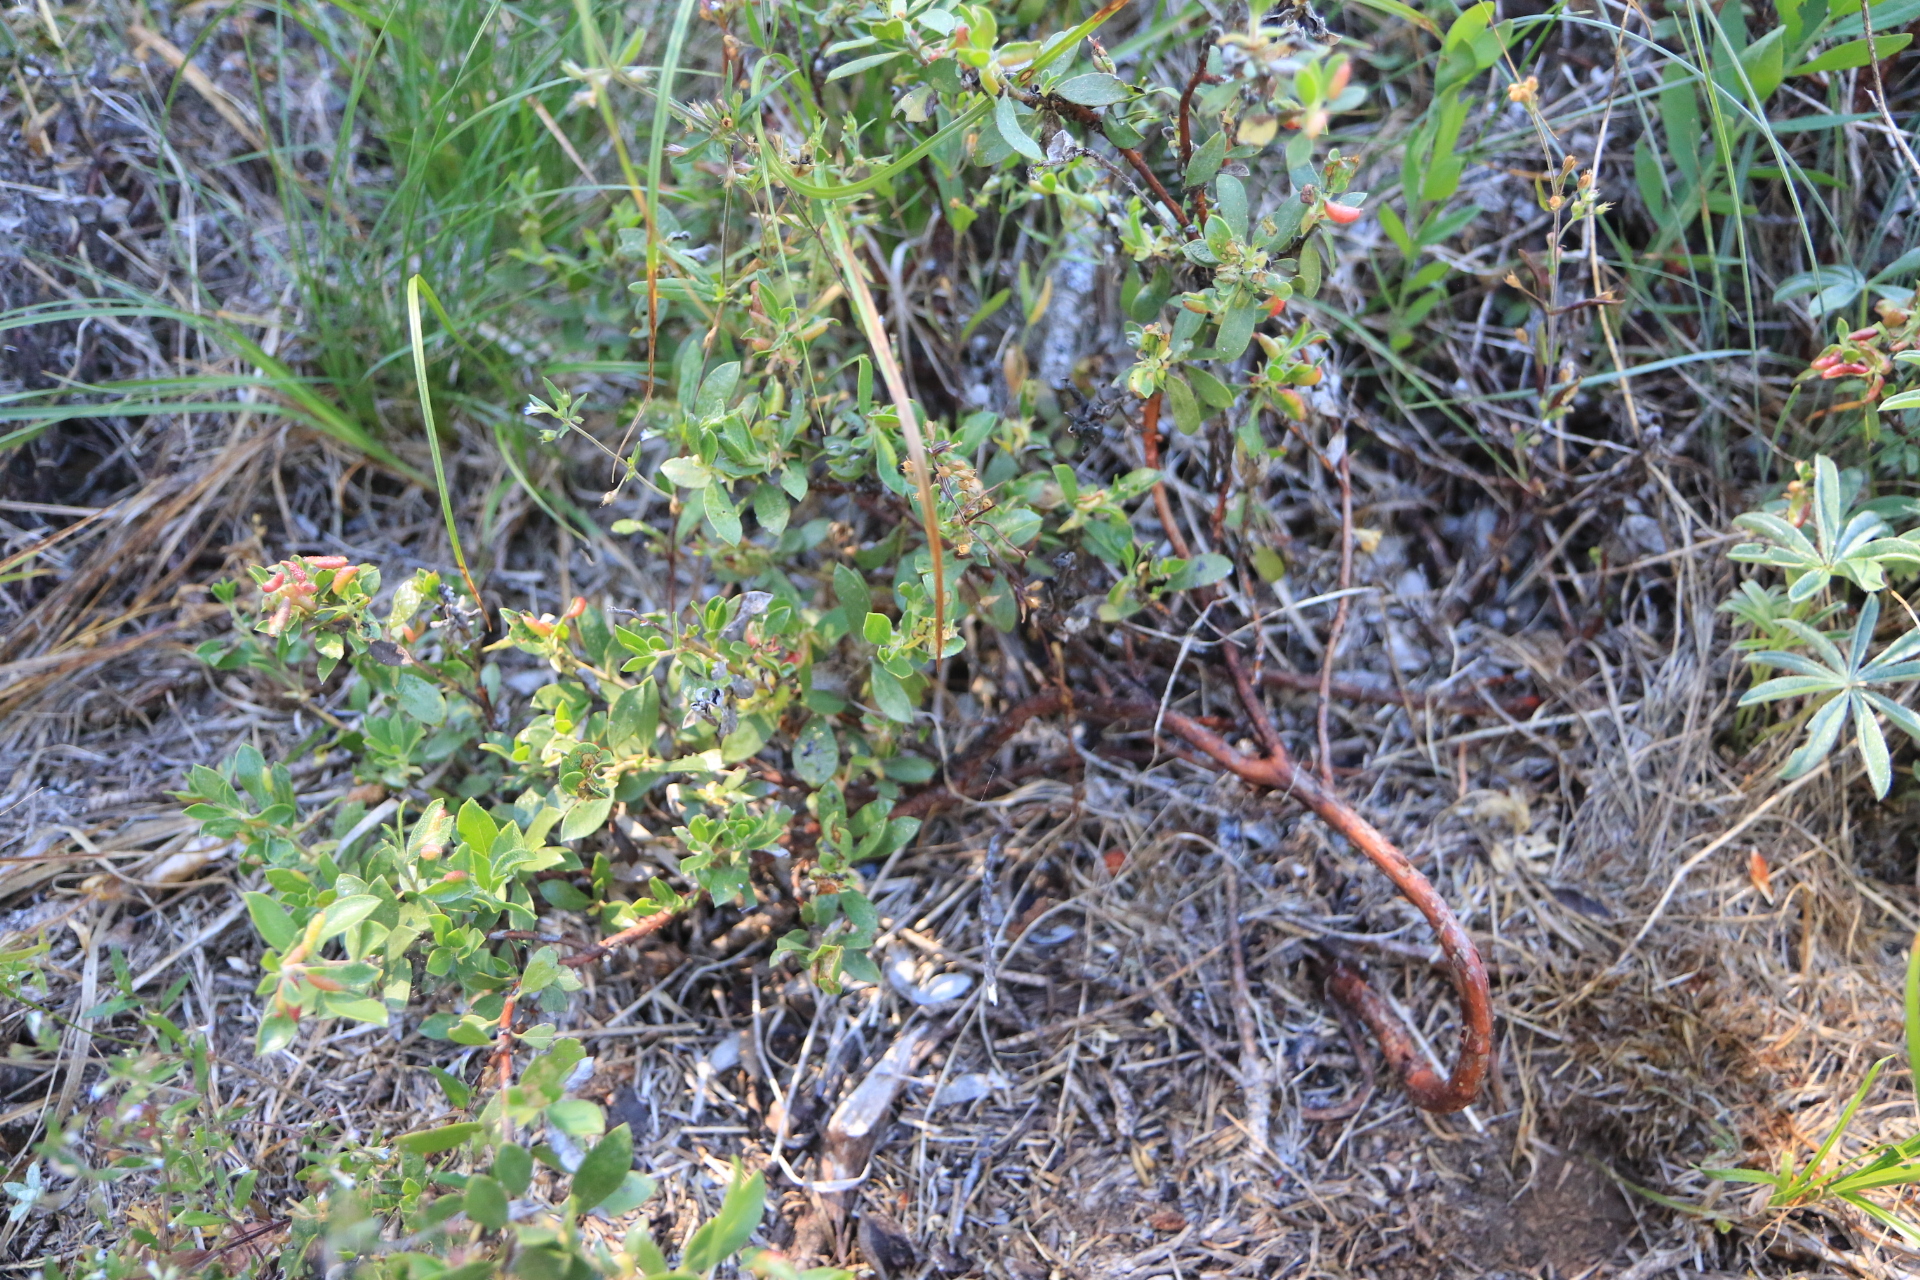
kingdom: Plantae
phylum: Tracheophyta
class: Magnoliopsida
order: Ericales
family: Ericaceae
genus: Arctostaphylos
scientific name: Arctostaphylos nevadensis
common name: Pinemat manzanita
